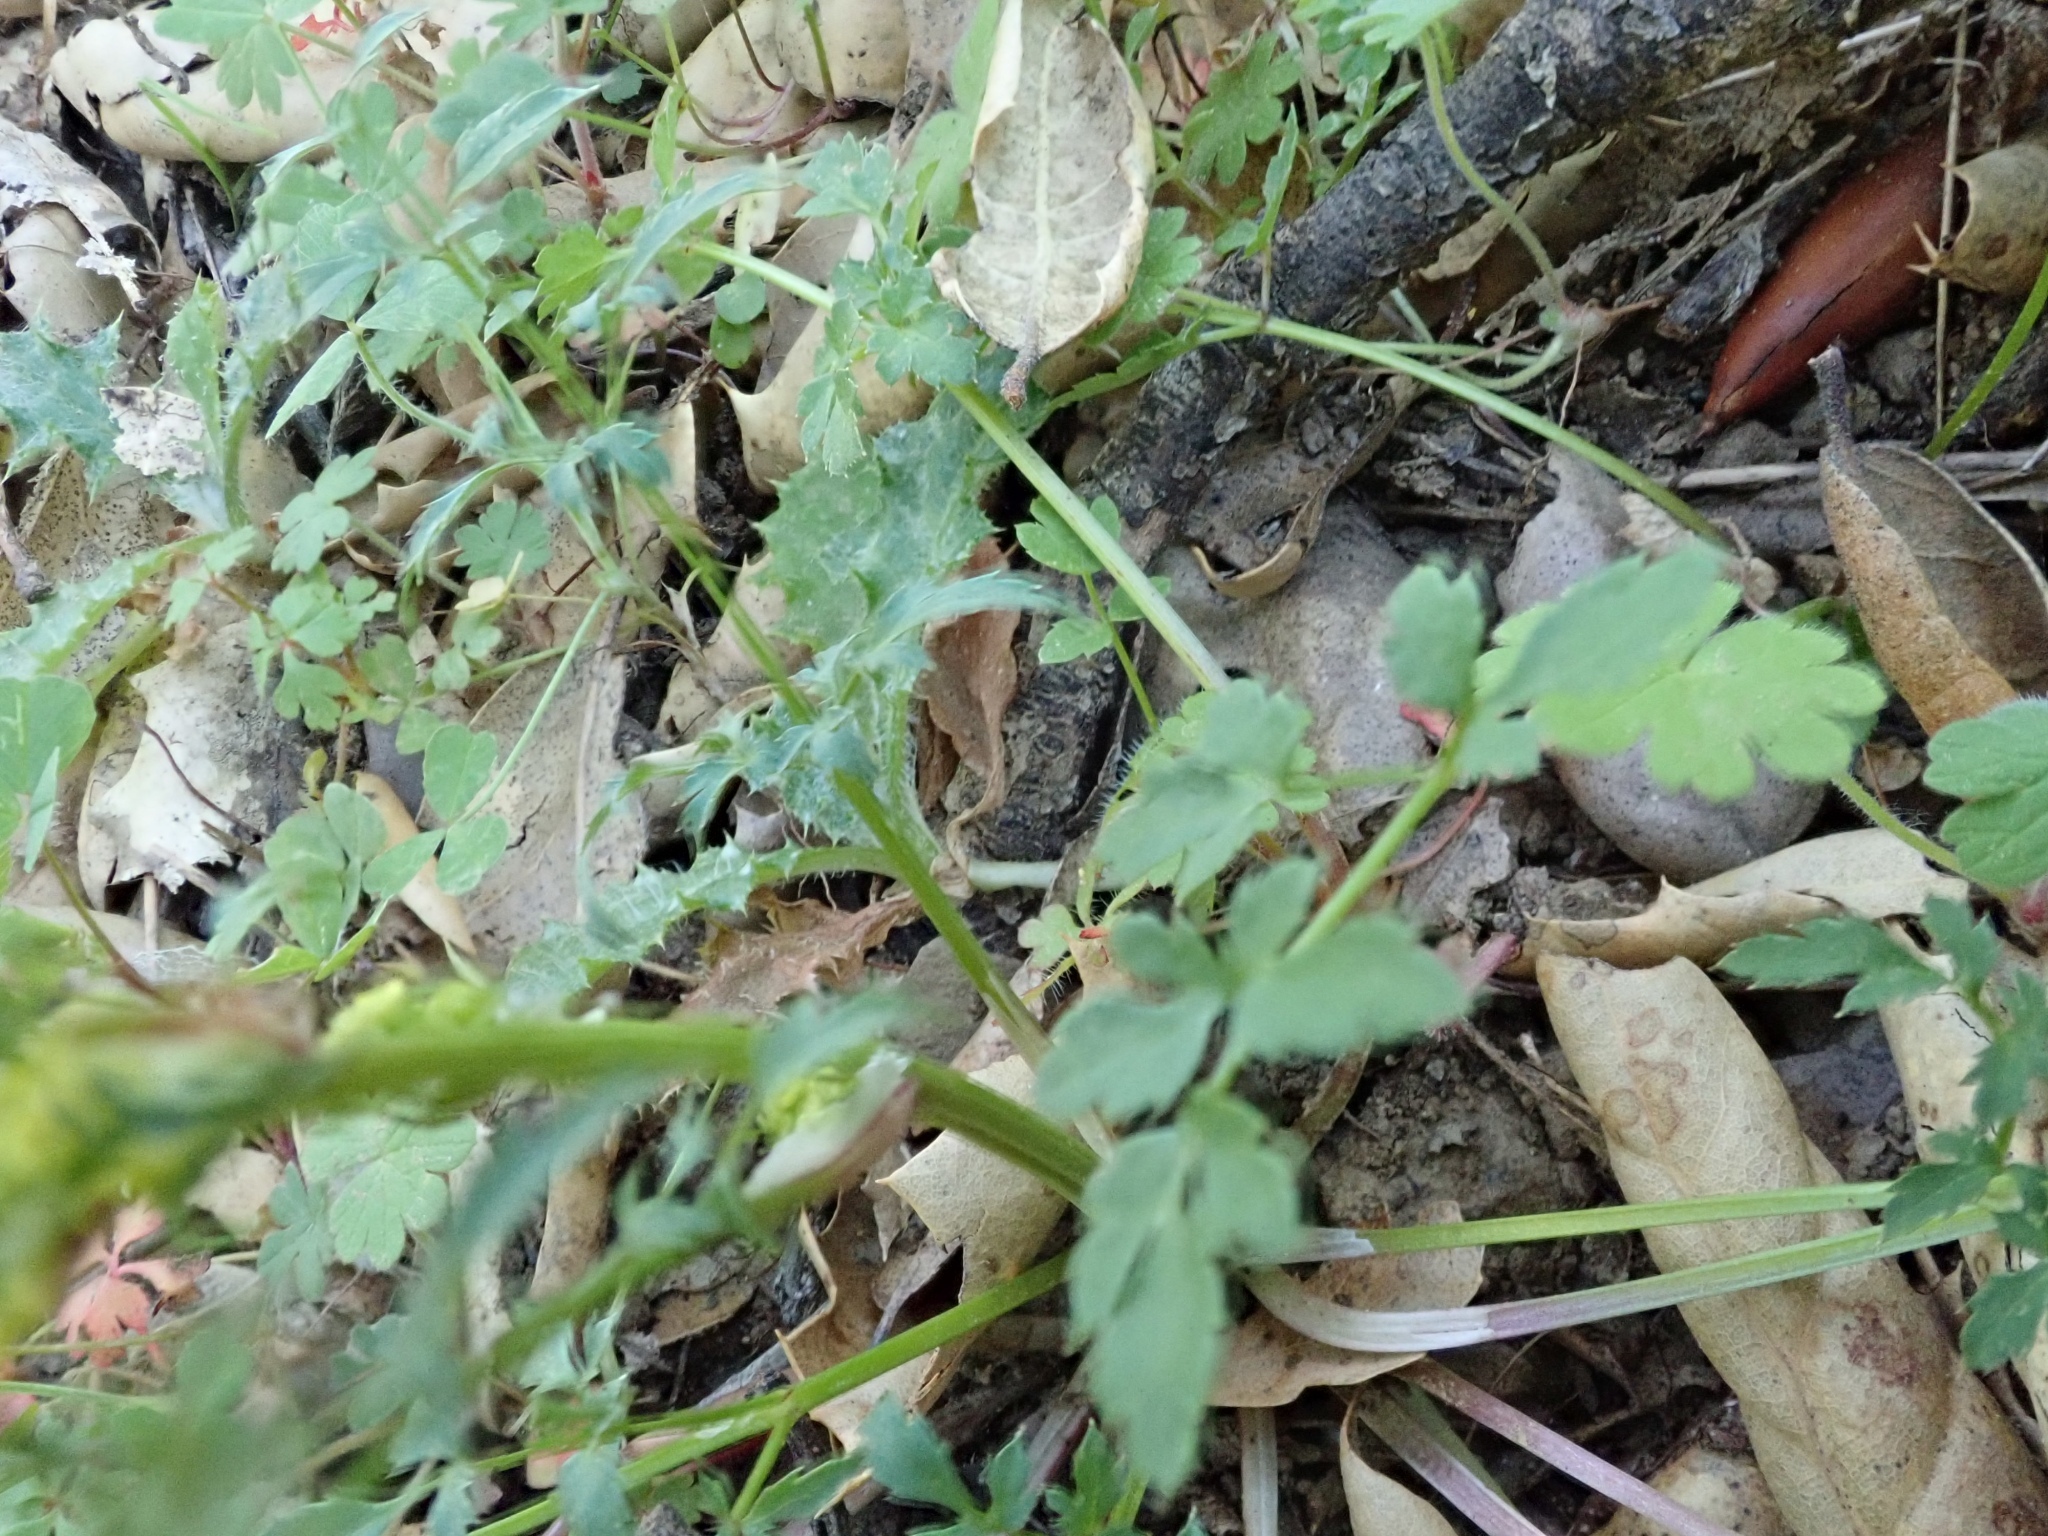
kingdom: Plantae
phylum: Tracheophyta
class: Magnoliopsida
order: Apiales
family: Apiaceae
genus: Sanicula
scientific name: Sanicula bipinnata
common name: Poison sanicle
